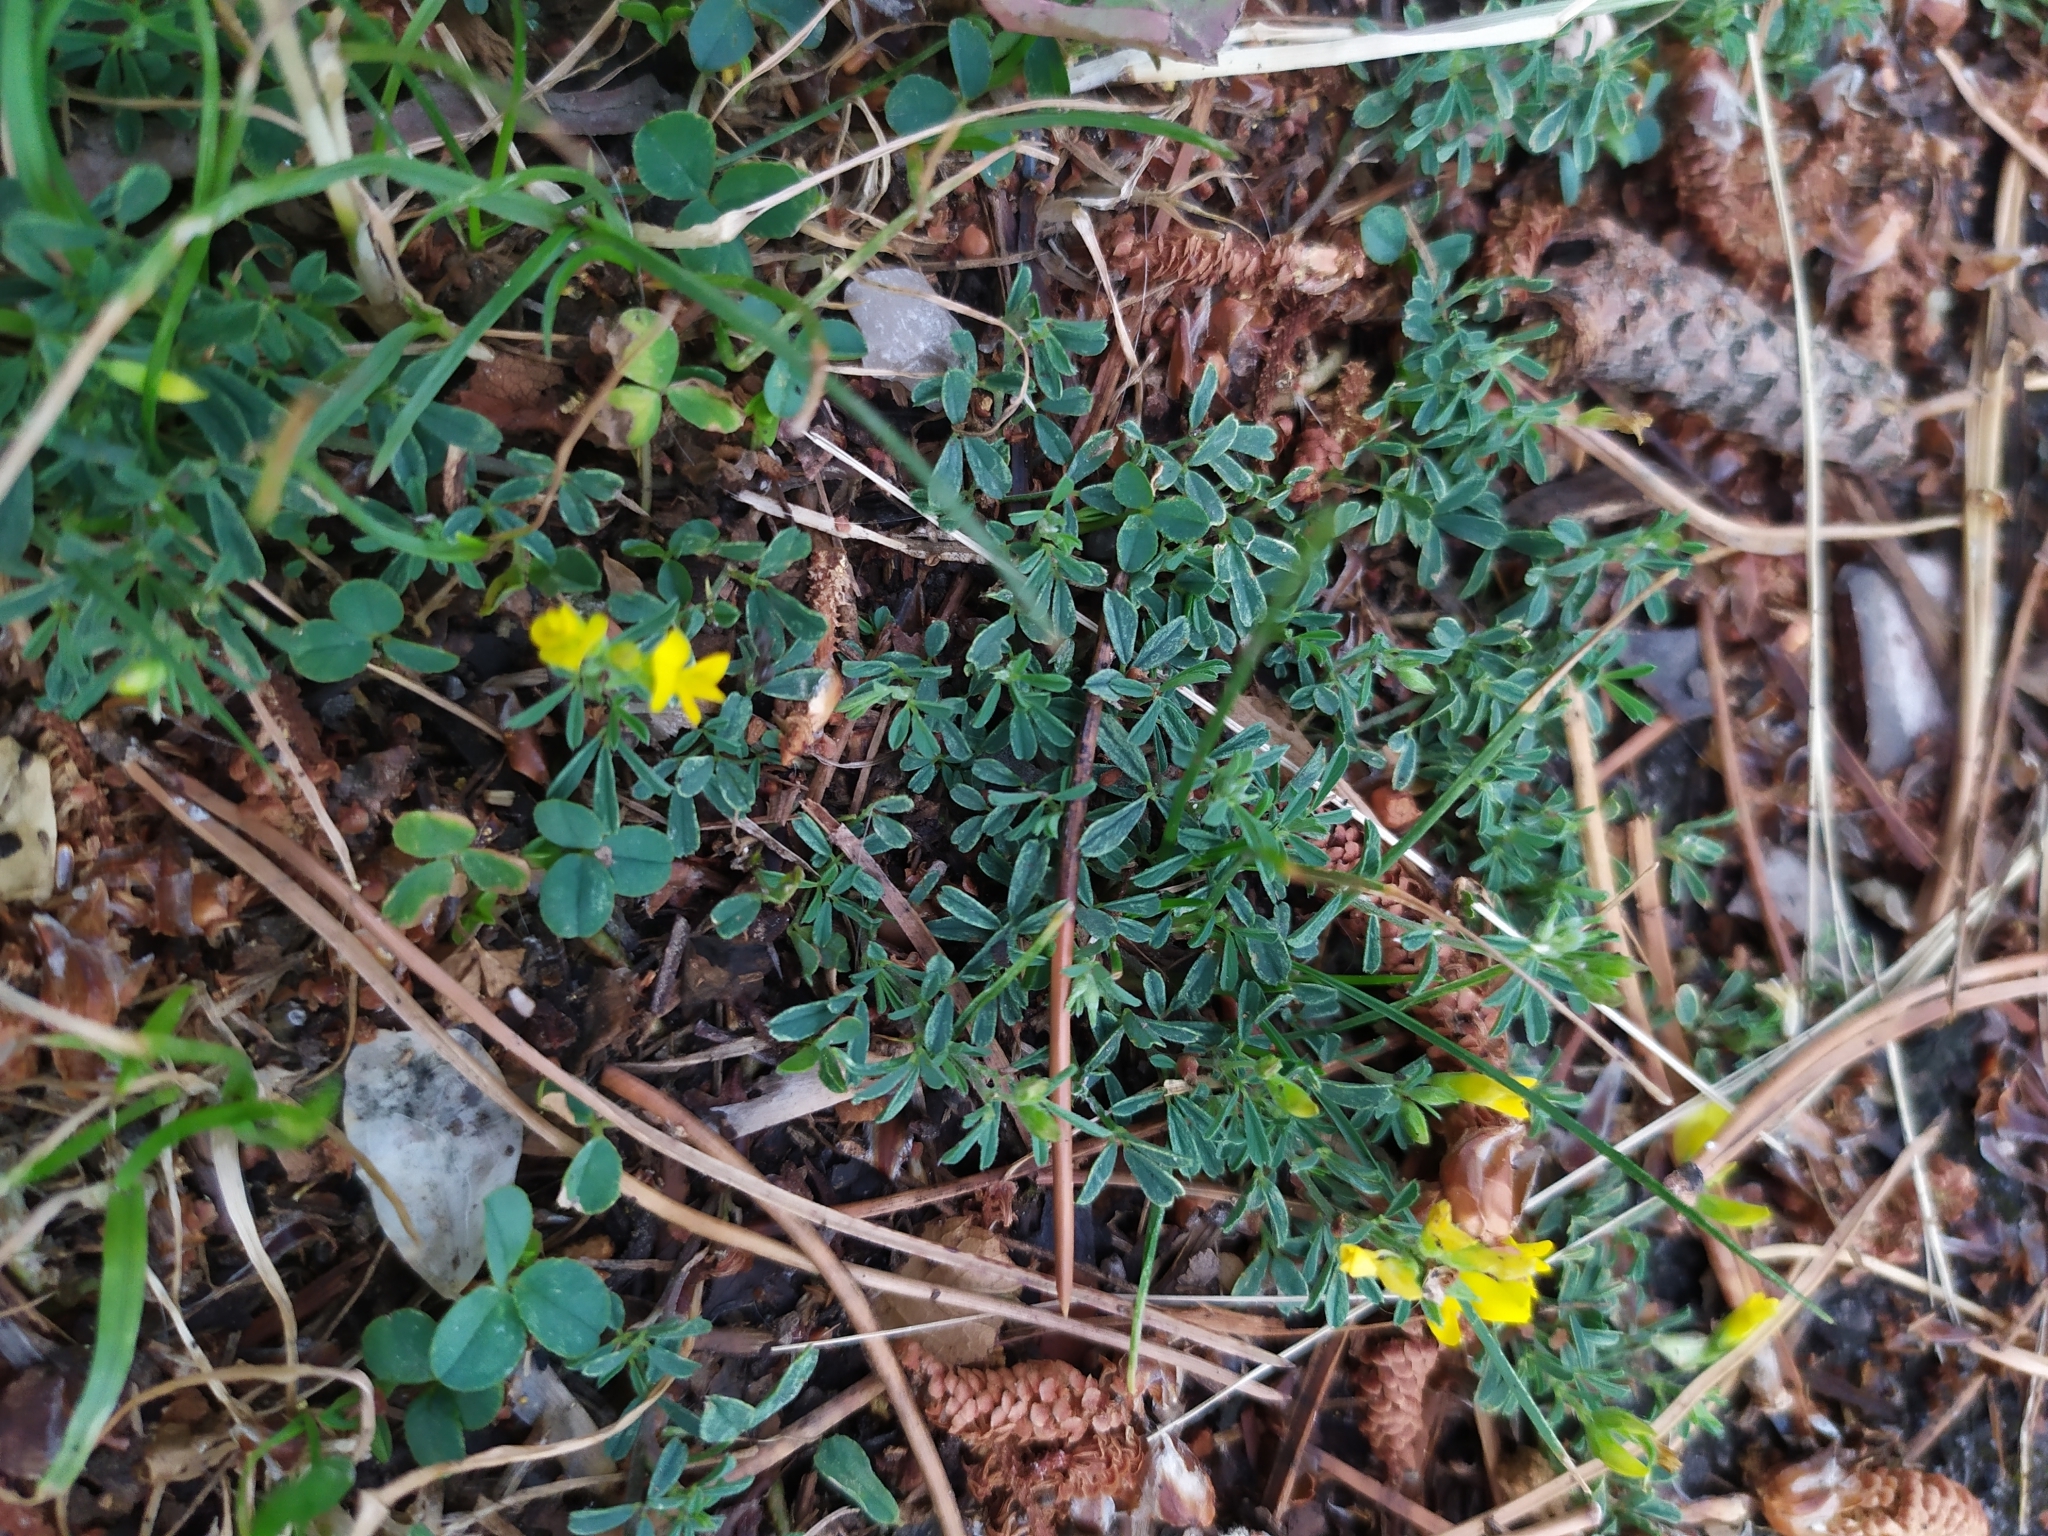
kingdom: Plantae
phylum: Tracheophyta
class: Magnoliopsida
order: Fabales
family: Fabaceae
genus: Medicago
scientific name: Medicago falcata
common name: Sickle medick
